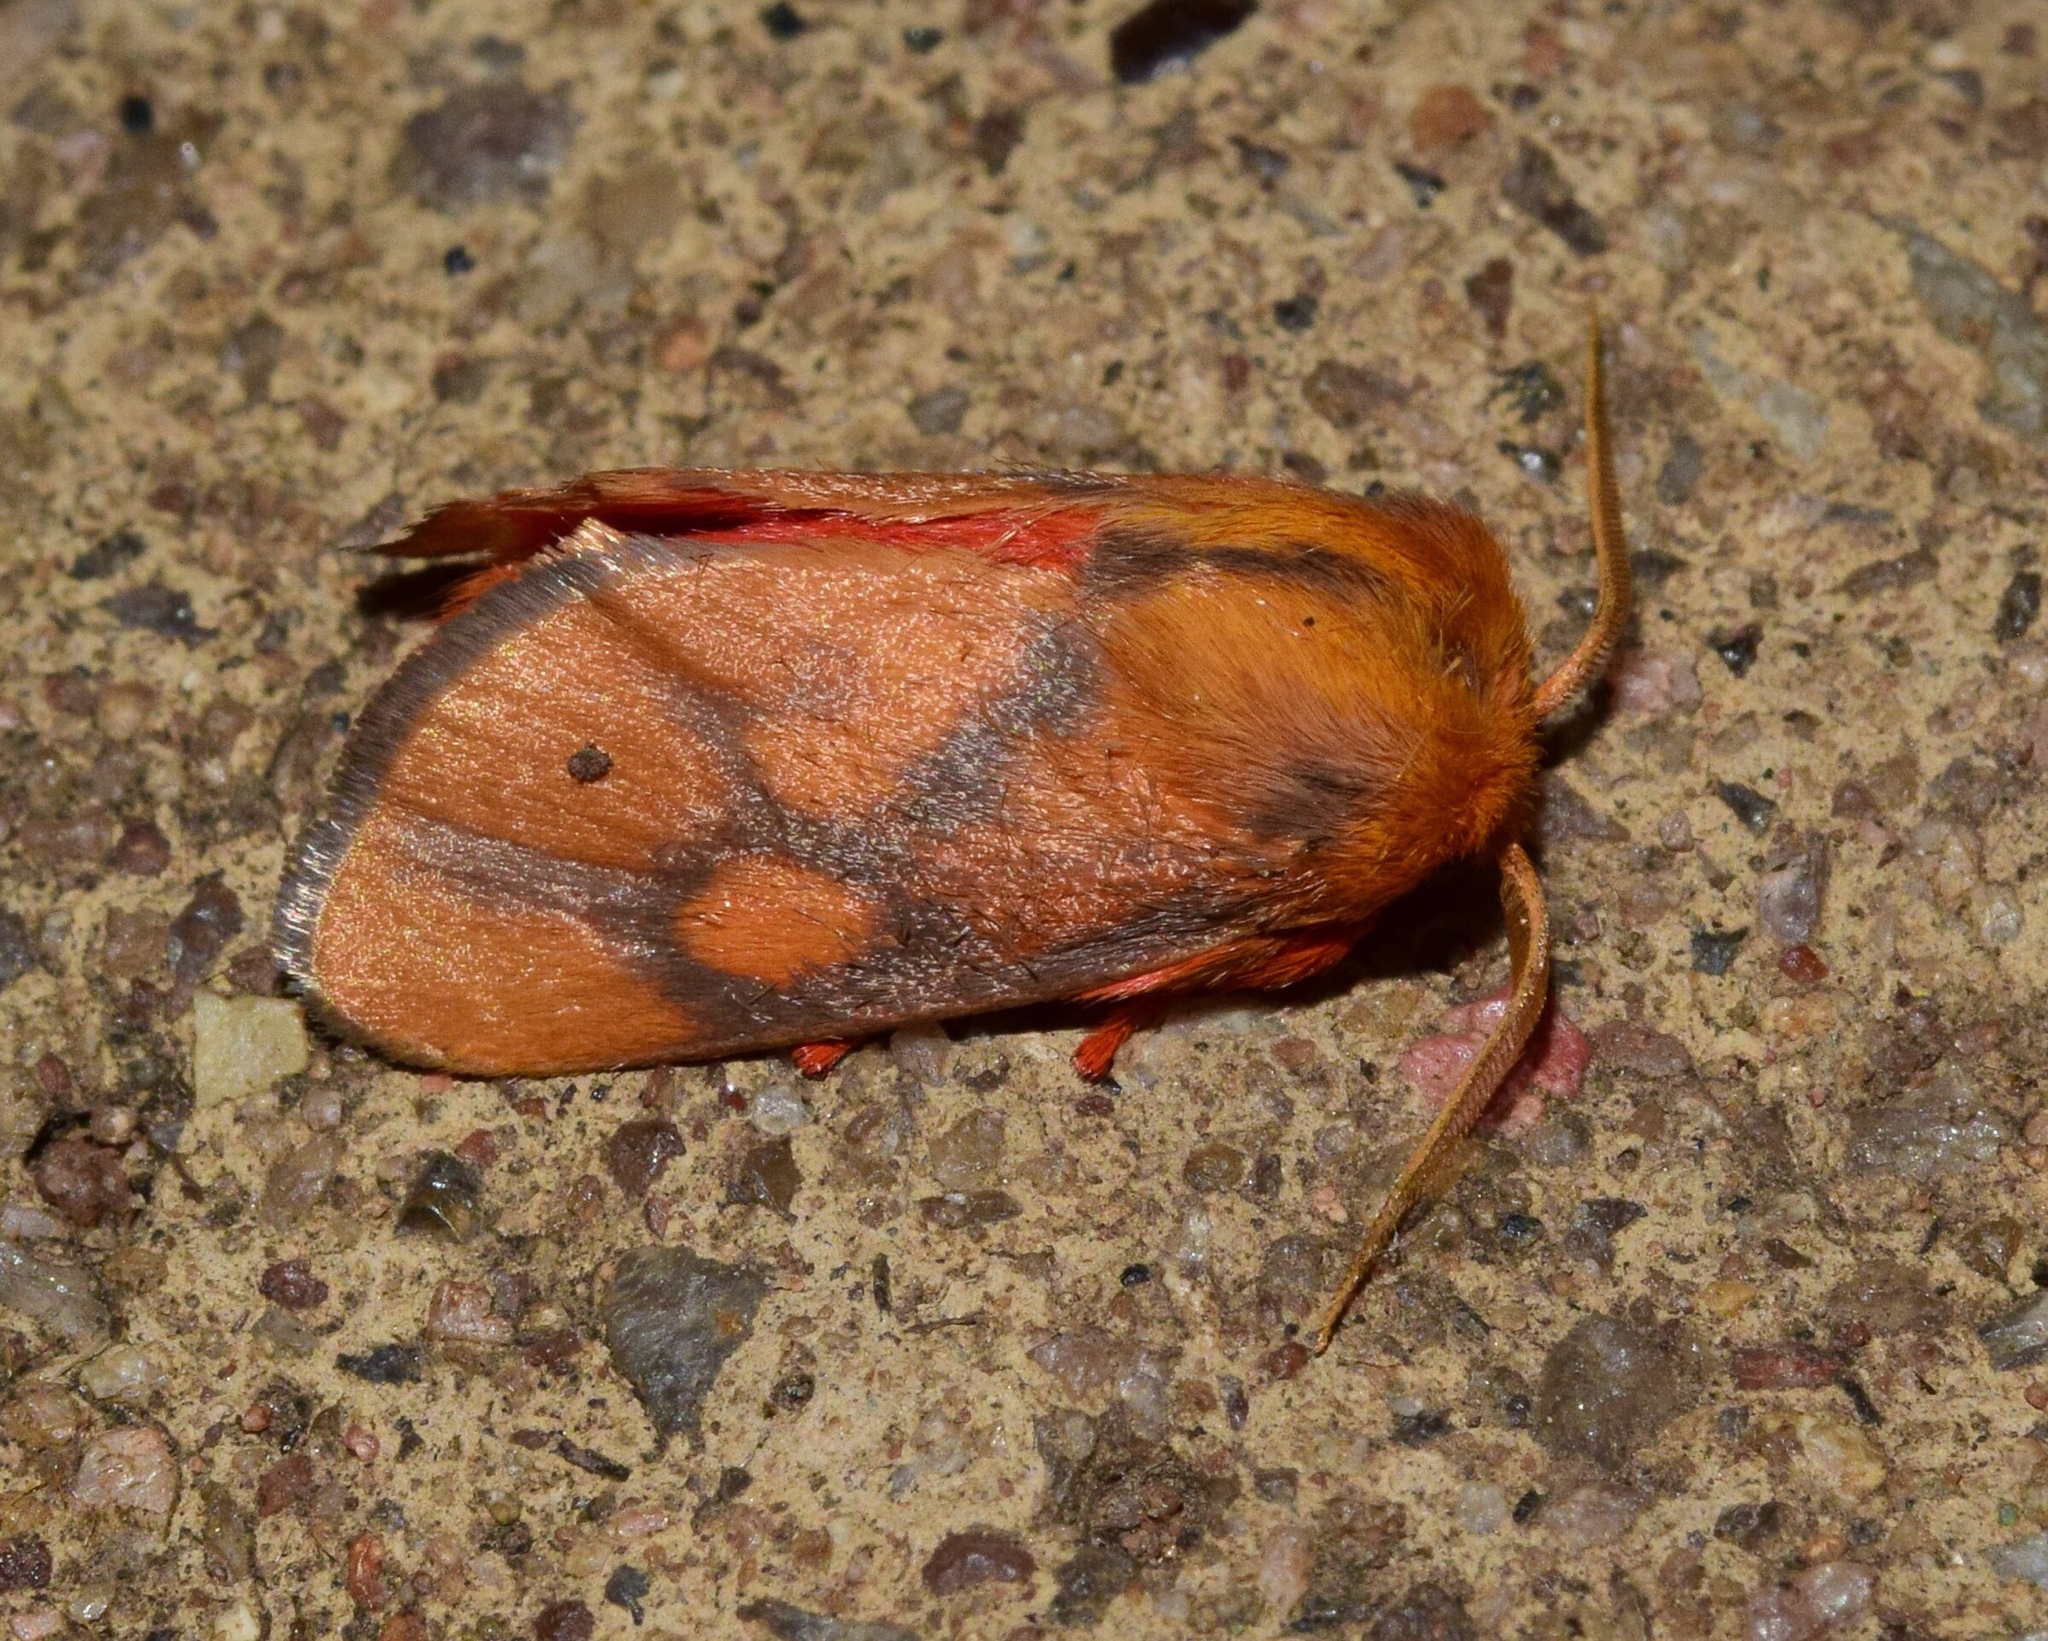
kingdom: Animalia
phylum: Arthropoda
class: Insecta
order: Lepidoptera
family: Limacodidae
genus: Micraphe
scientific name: Micraphe lateritia
